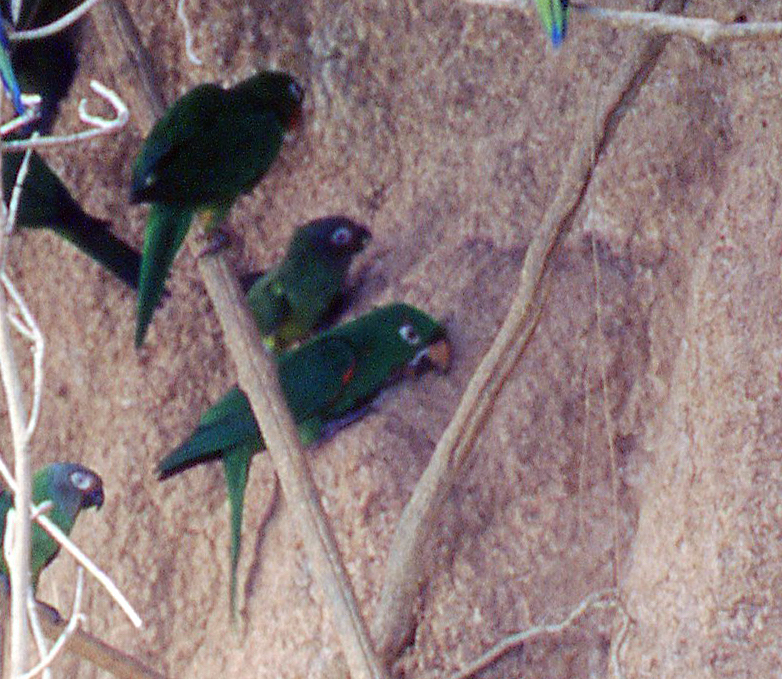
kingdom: Animalia
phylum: Chordata
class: Aves
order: Psittaciformes
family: Psittacidae
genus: Aratinga
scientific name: Aratinga leucophthalma
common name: White-eyed parakeet
